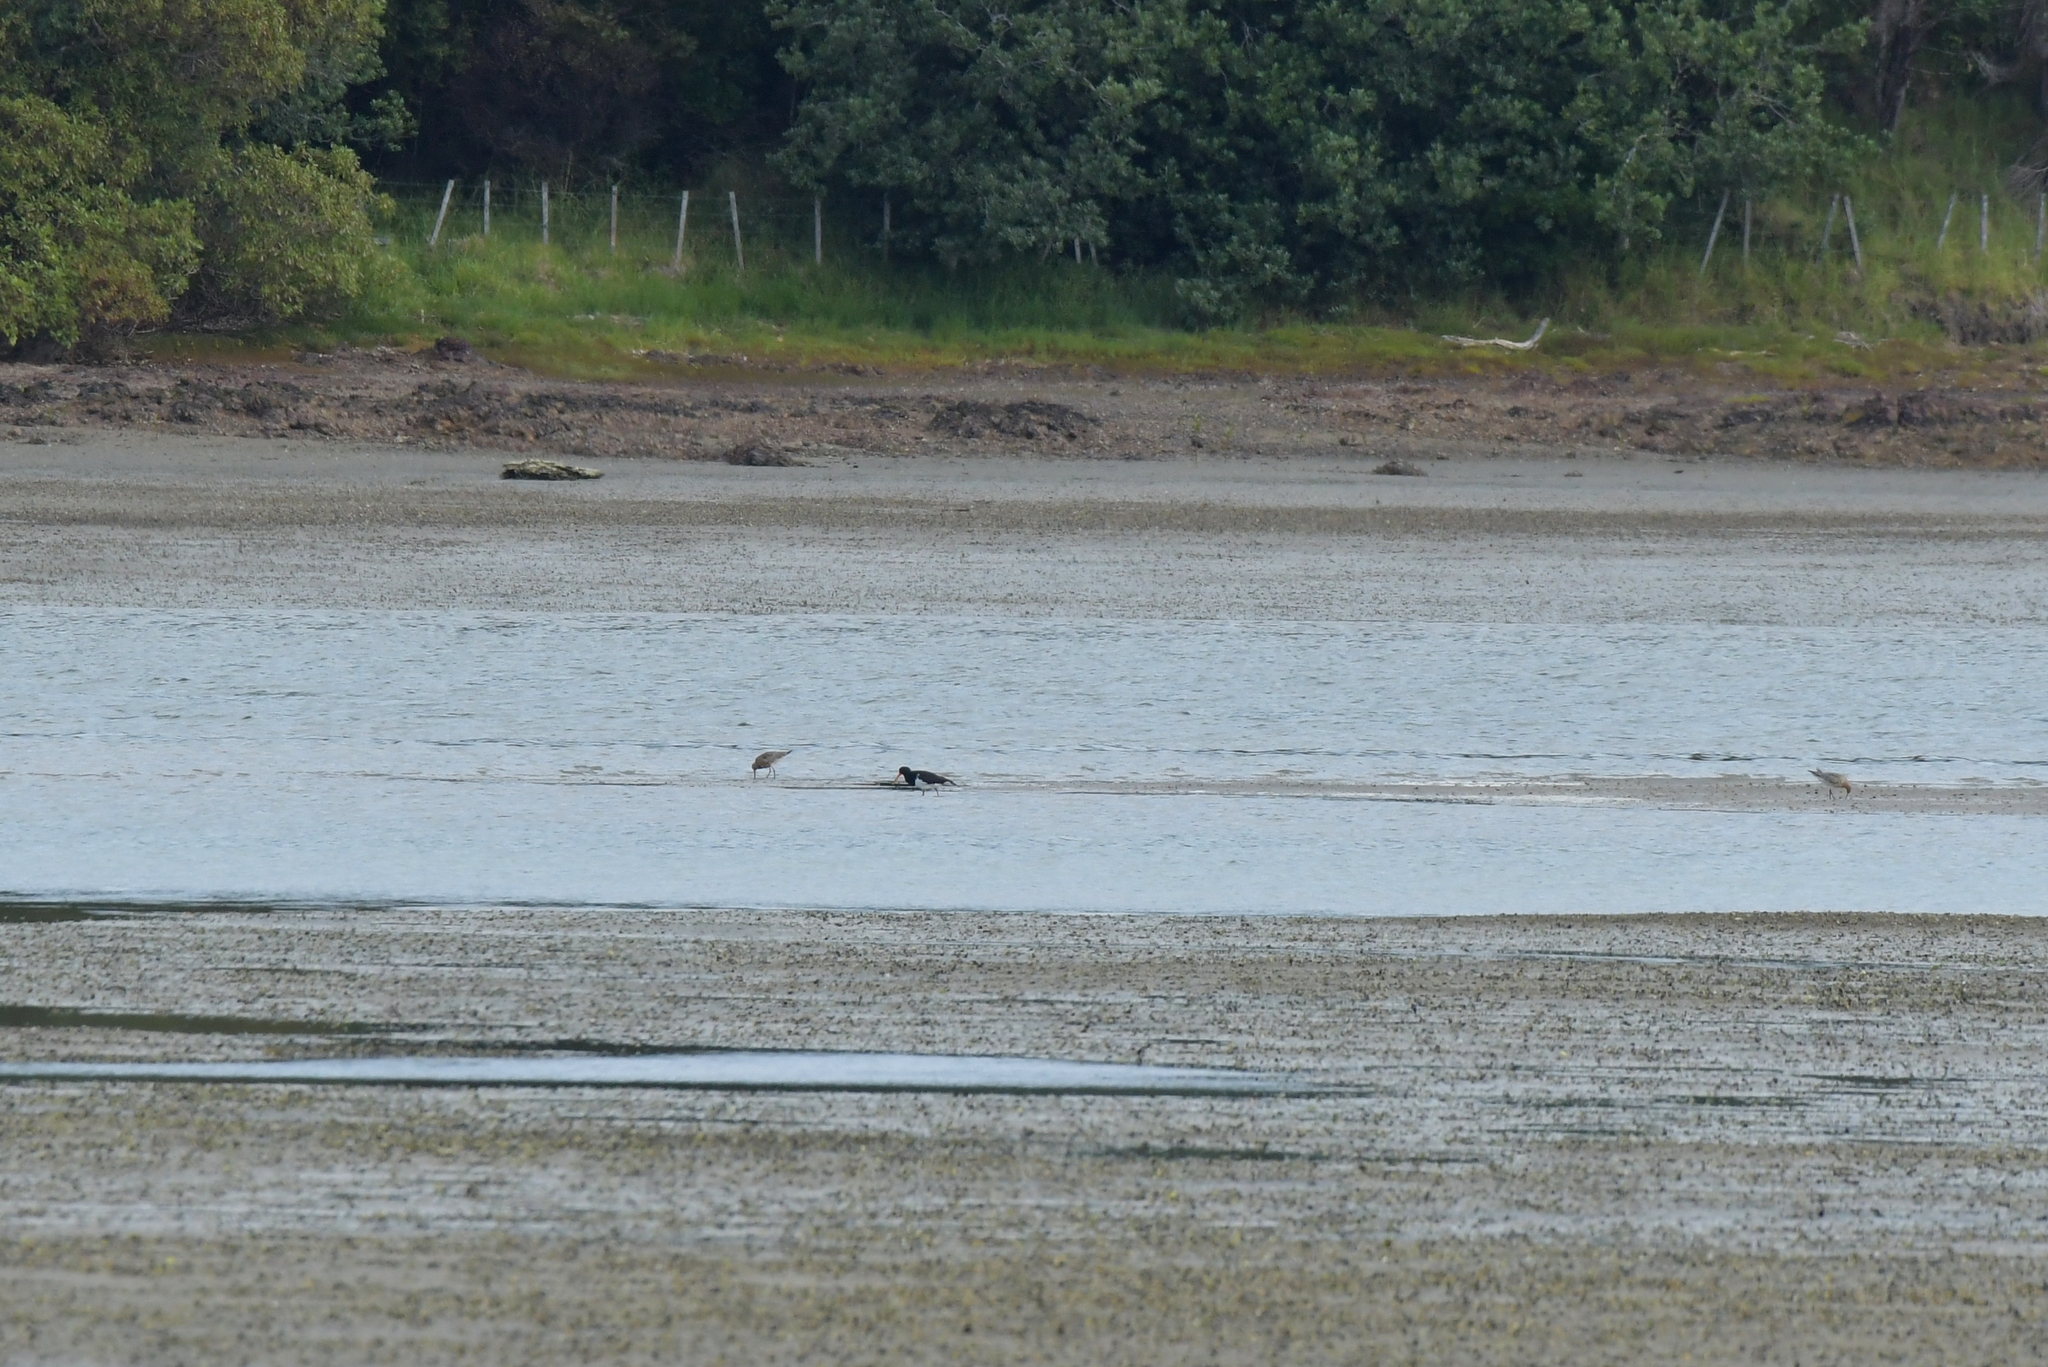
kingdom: Animalia
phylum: Chordata
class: Aves
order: Charadriiformes
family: Haematopodidae
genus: Haematopus
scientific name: Haematopus finschi
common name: South island oystercatcher
